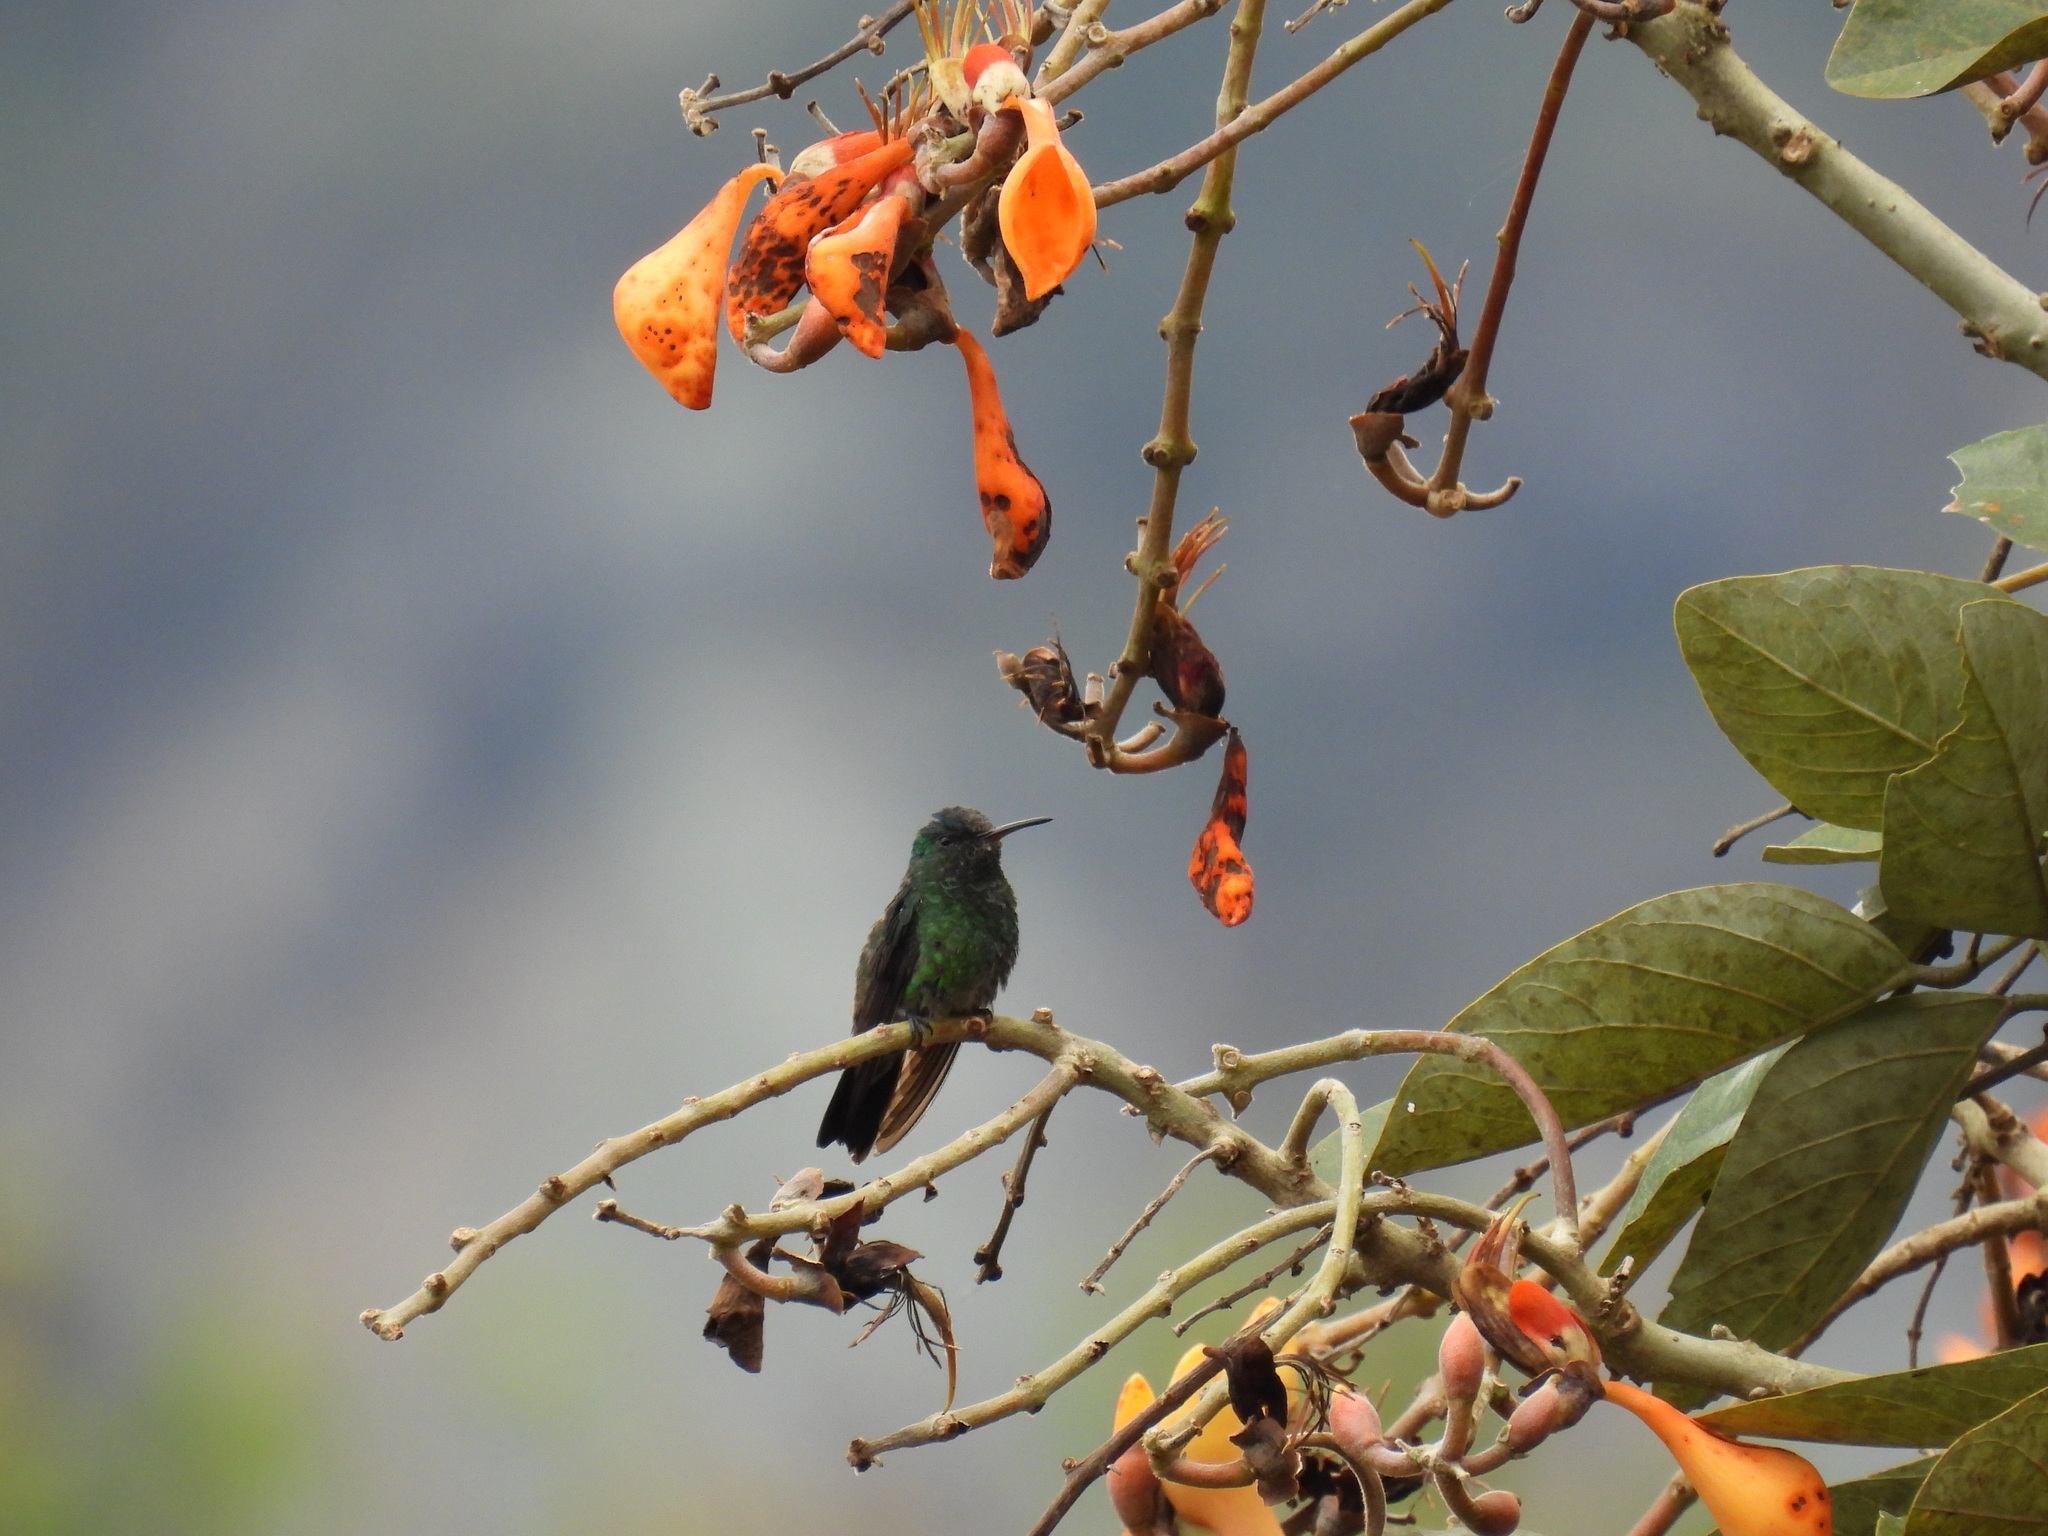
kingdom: Animalia
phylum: Chordata
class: Aves
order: Apodiformes
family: Trochilidae
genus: Saucerottia
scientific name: Saucerottia saucerottei
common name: Steely-vented hummingbird
